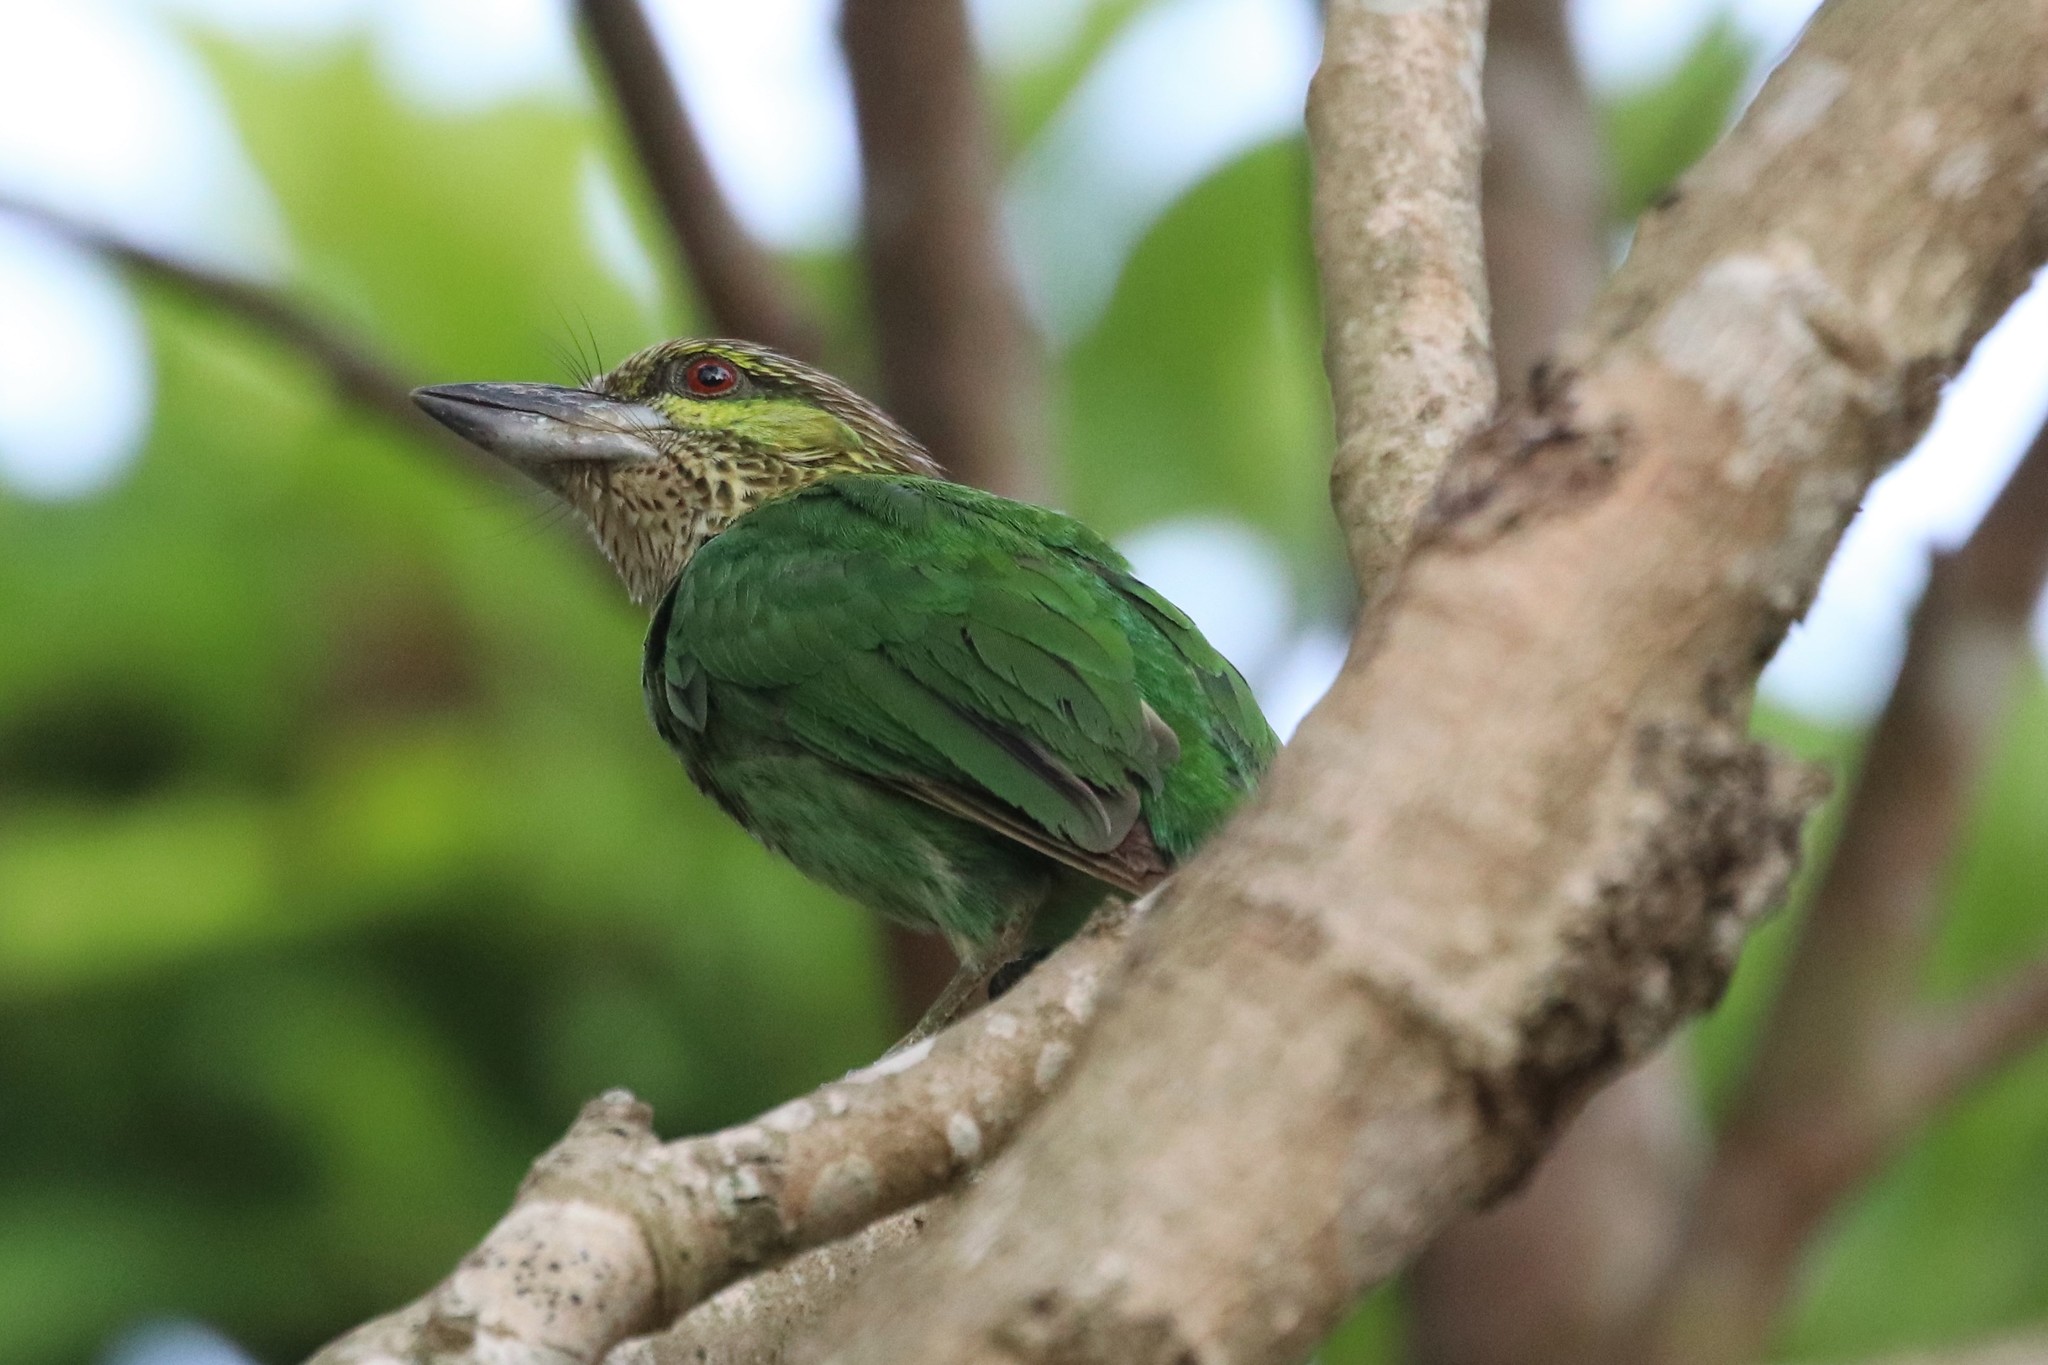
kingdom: Animalia
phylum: Chordata
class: Aves
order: Piciformes
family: Megalaimidae
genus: Psilopogon
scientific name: Psilopogon faiostrictus
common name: Green-eared barbet
